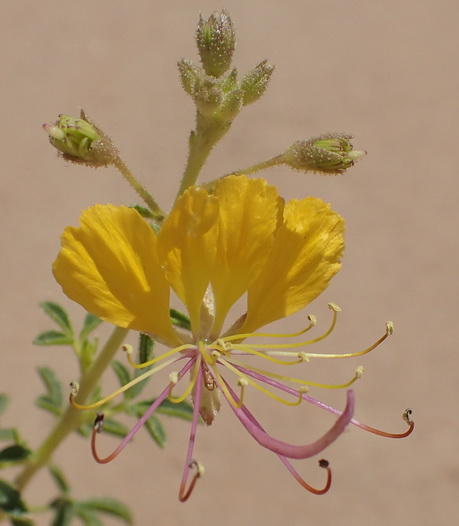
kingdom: Plantae
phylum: Tracheophyta
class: Magnoliopsida
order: Brassicales
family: Cleomaceae
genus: Kersia
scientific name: Kersia foliosa
